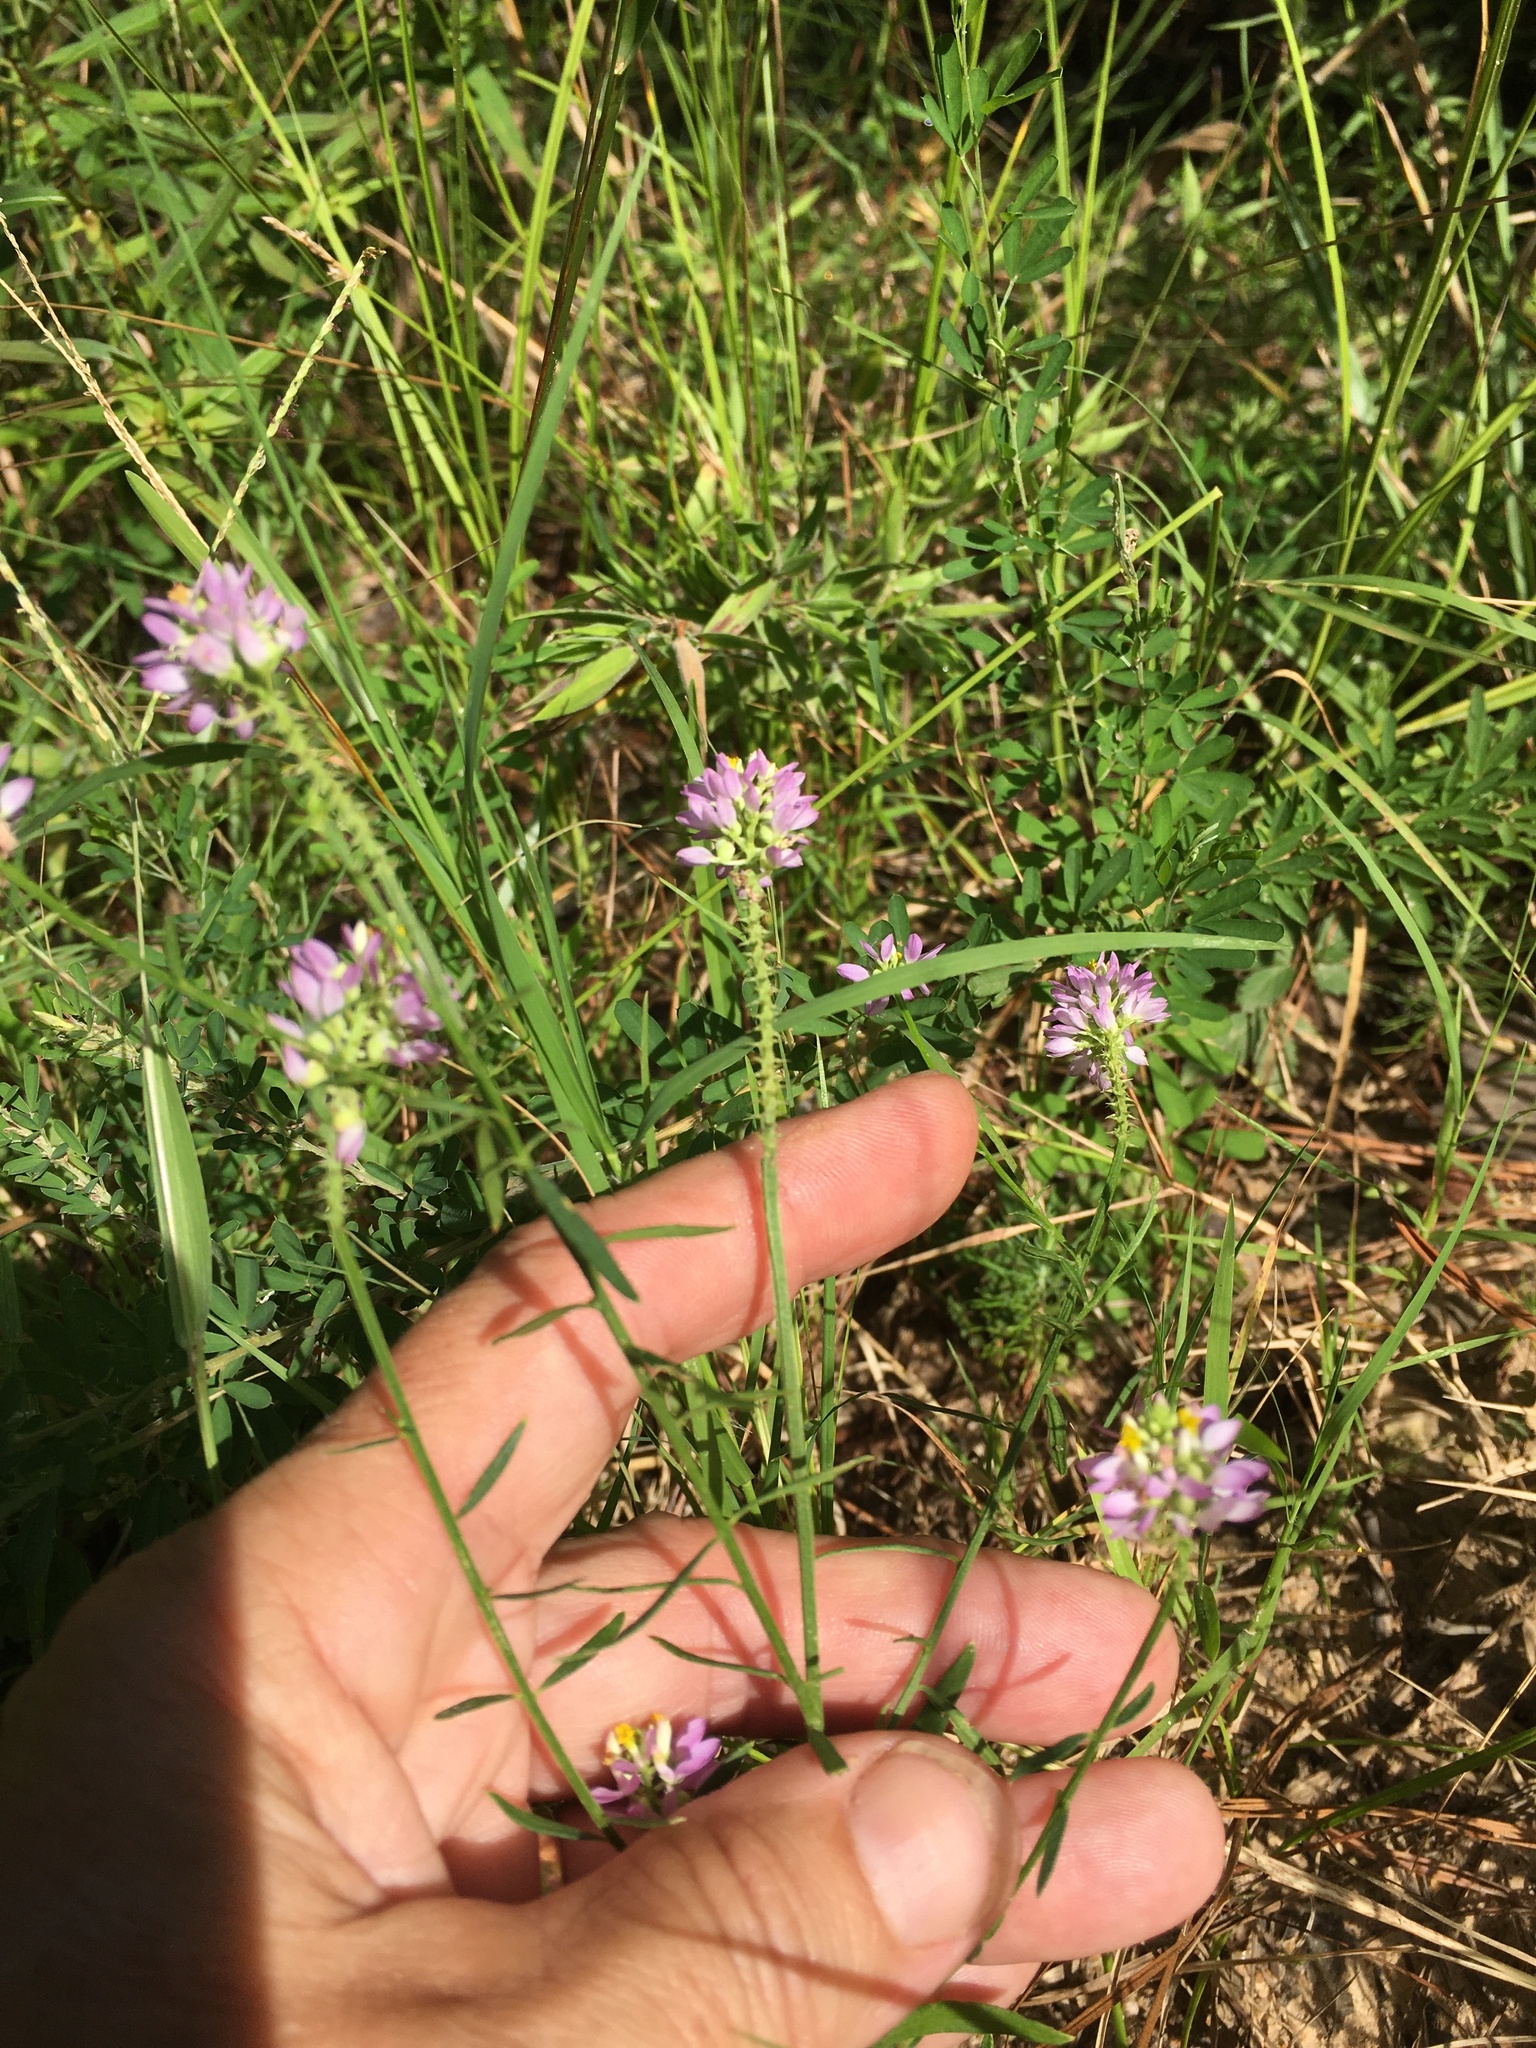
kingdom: Plantae
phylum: Tracheophyta
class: Magnoliopsida
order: Fabales
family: Polygalaceae
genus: Polygala
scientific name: Polygala curtissii
